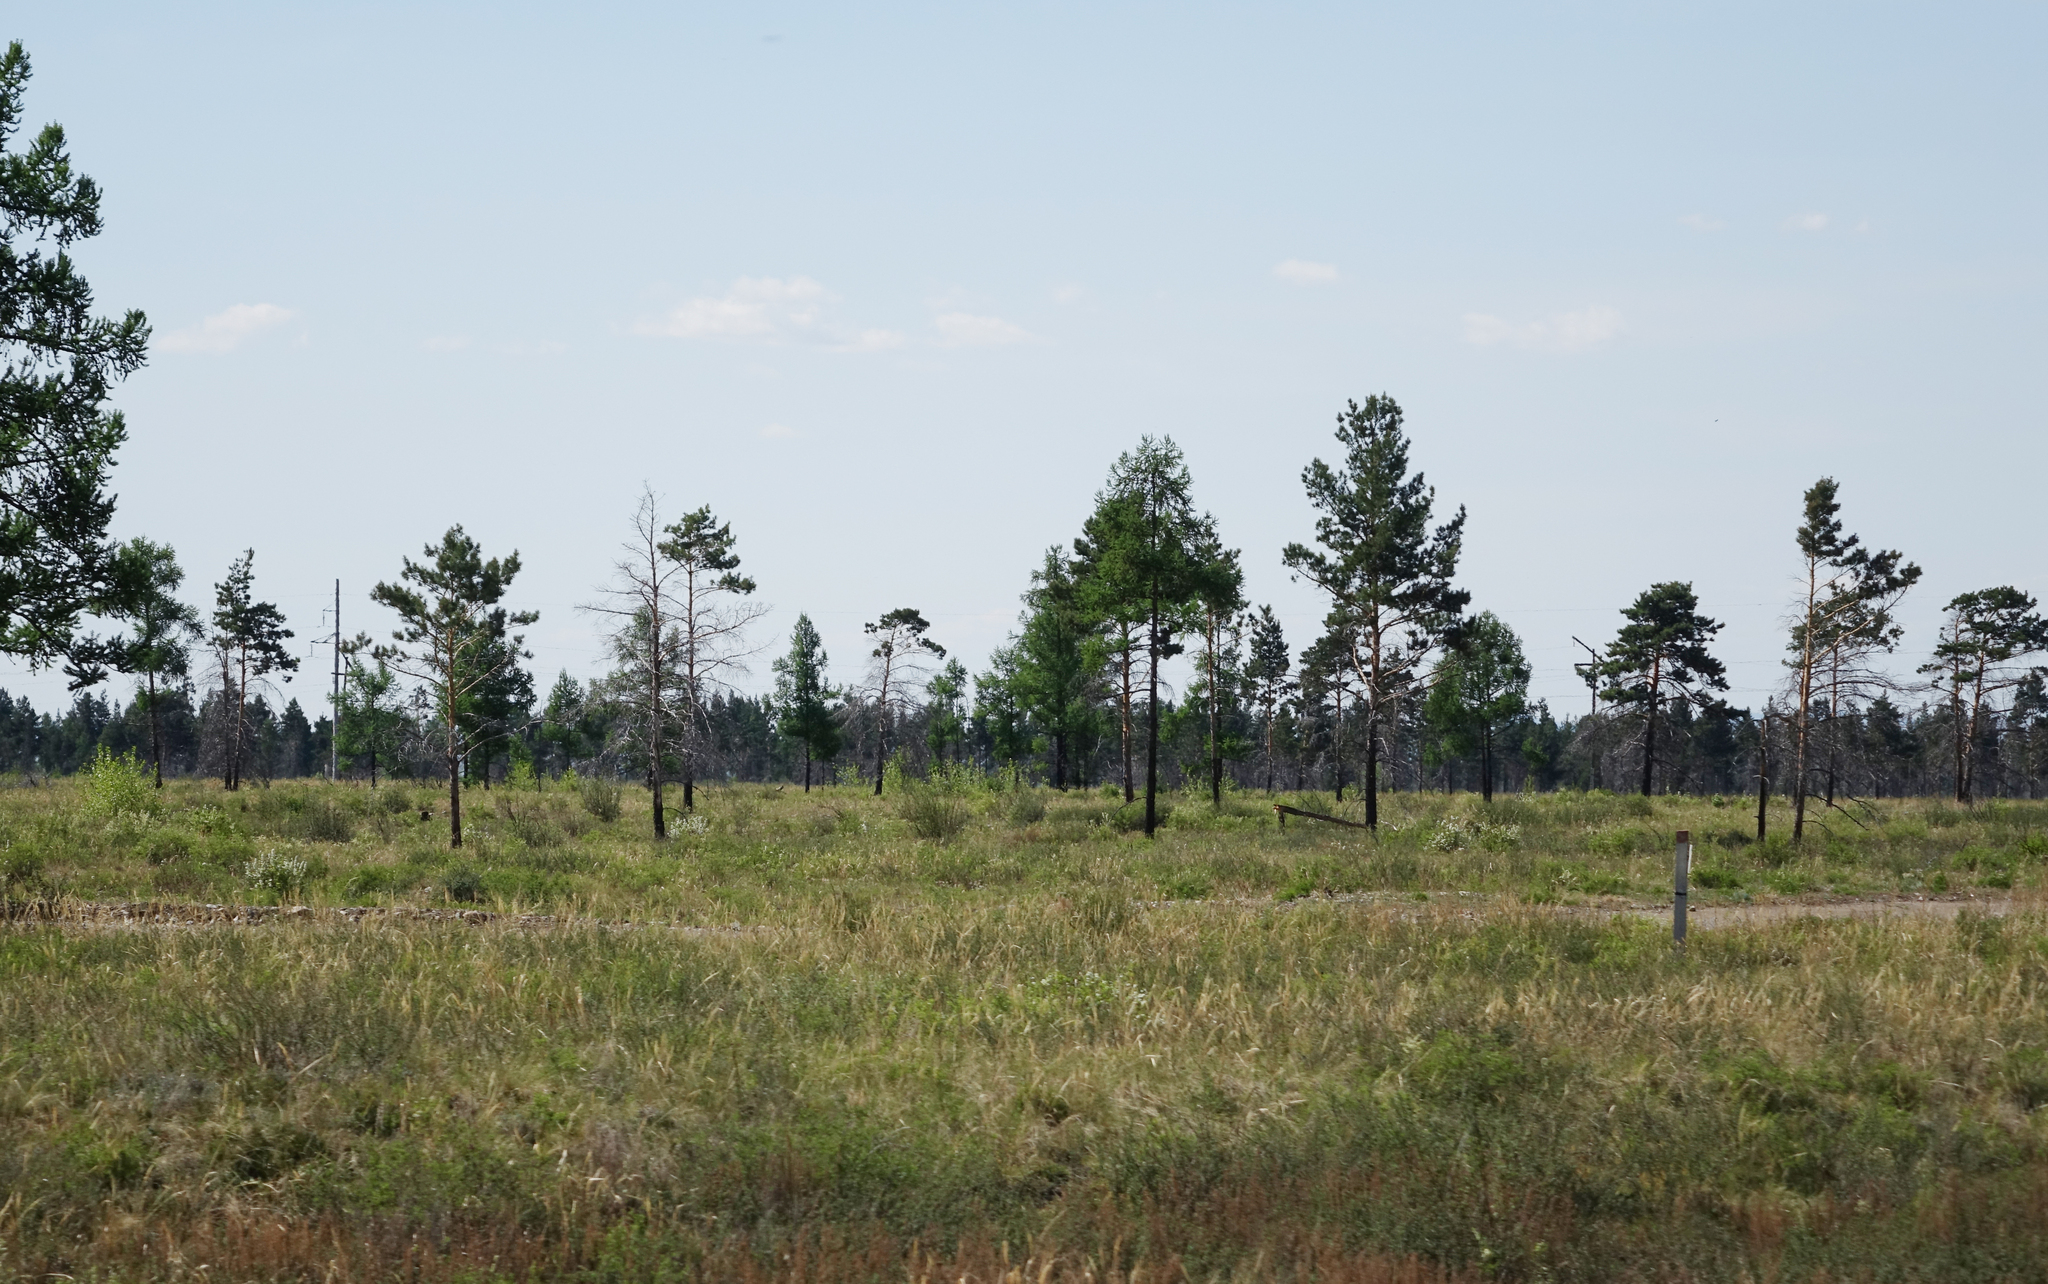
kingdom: Plantae
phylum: Tracheophyta
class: Pinopsida
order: Pinales
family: Pinaceae
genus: Pinus
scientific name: Pinus sylvestris
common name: Scots pine
